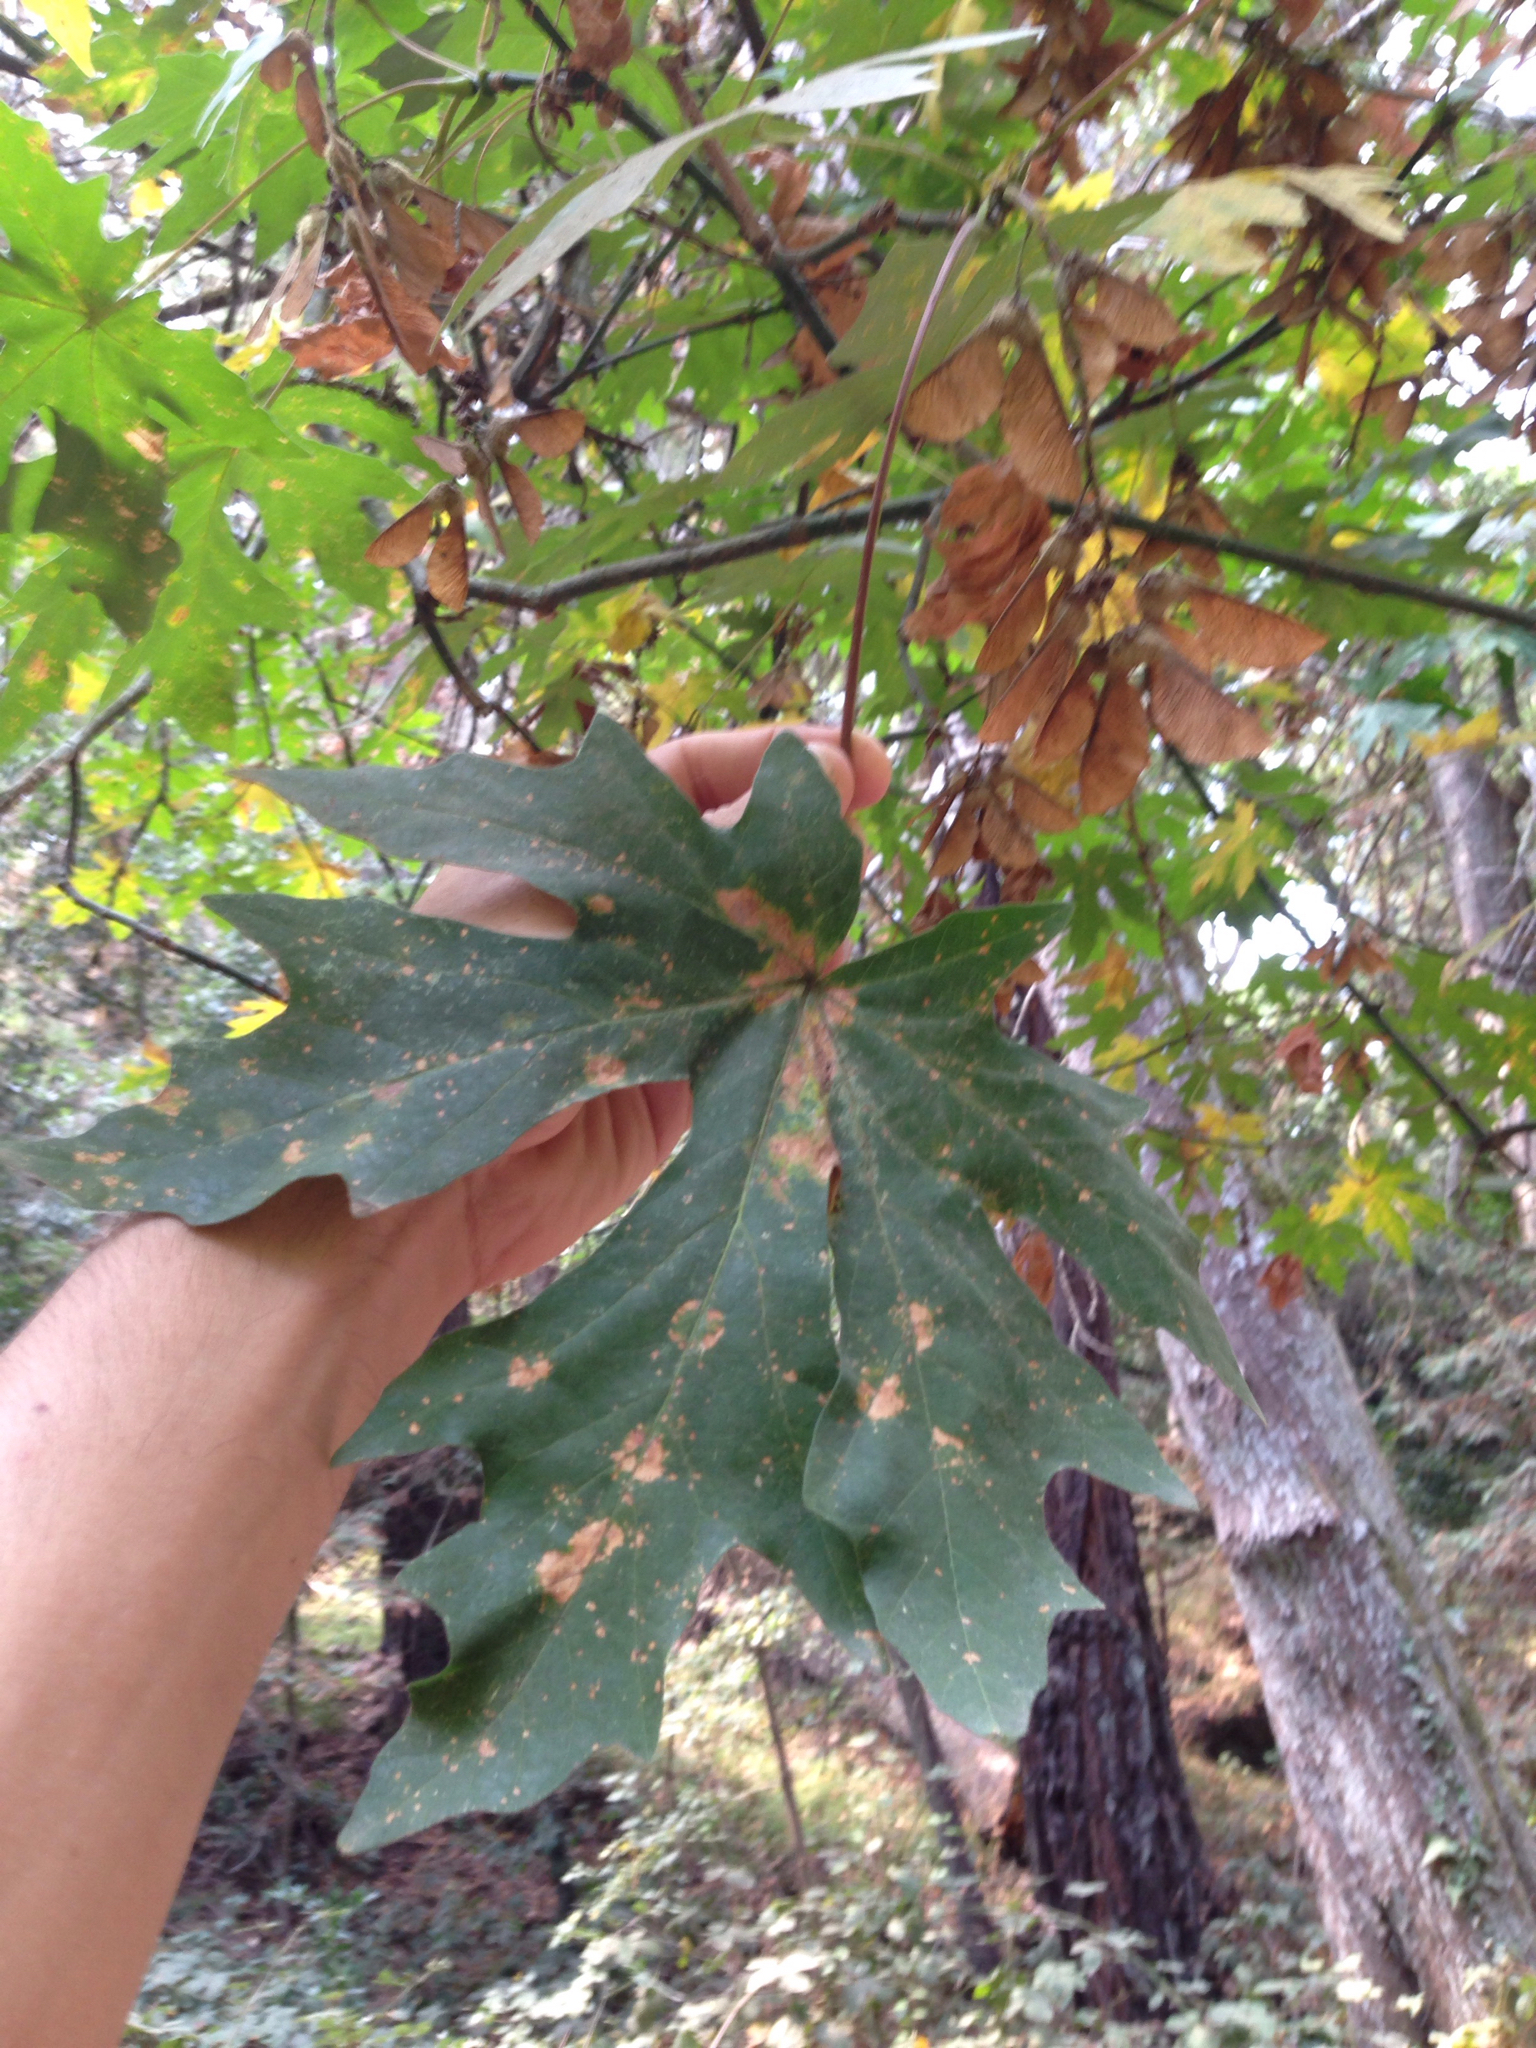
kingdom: Plantae
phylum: Tracheophyta
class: Magnoliopsida
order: Sapindales
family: Sapindaceae
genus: Acer
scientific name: Acer macrophyllum
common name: Oregon maple
